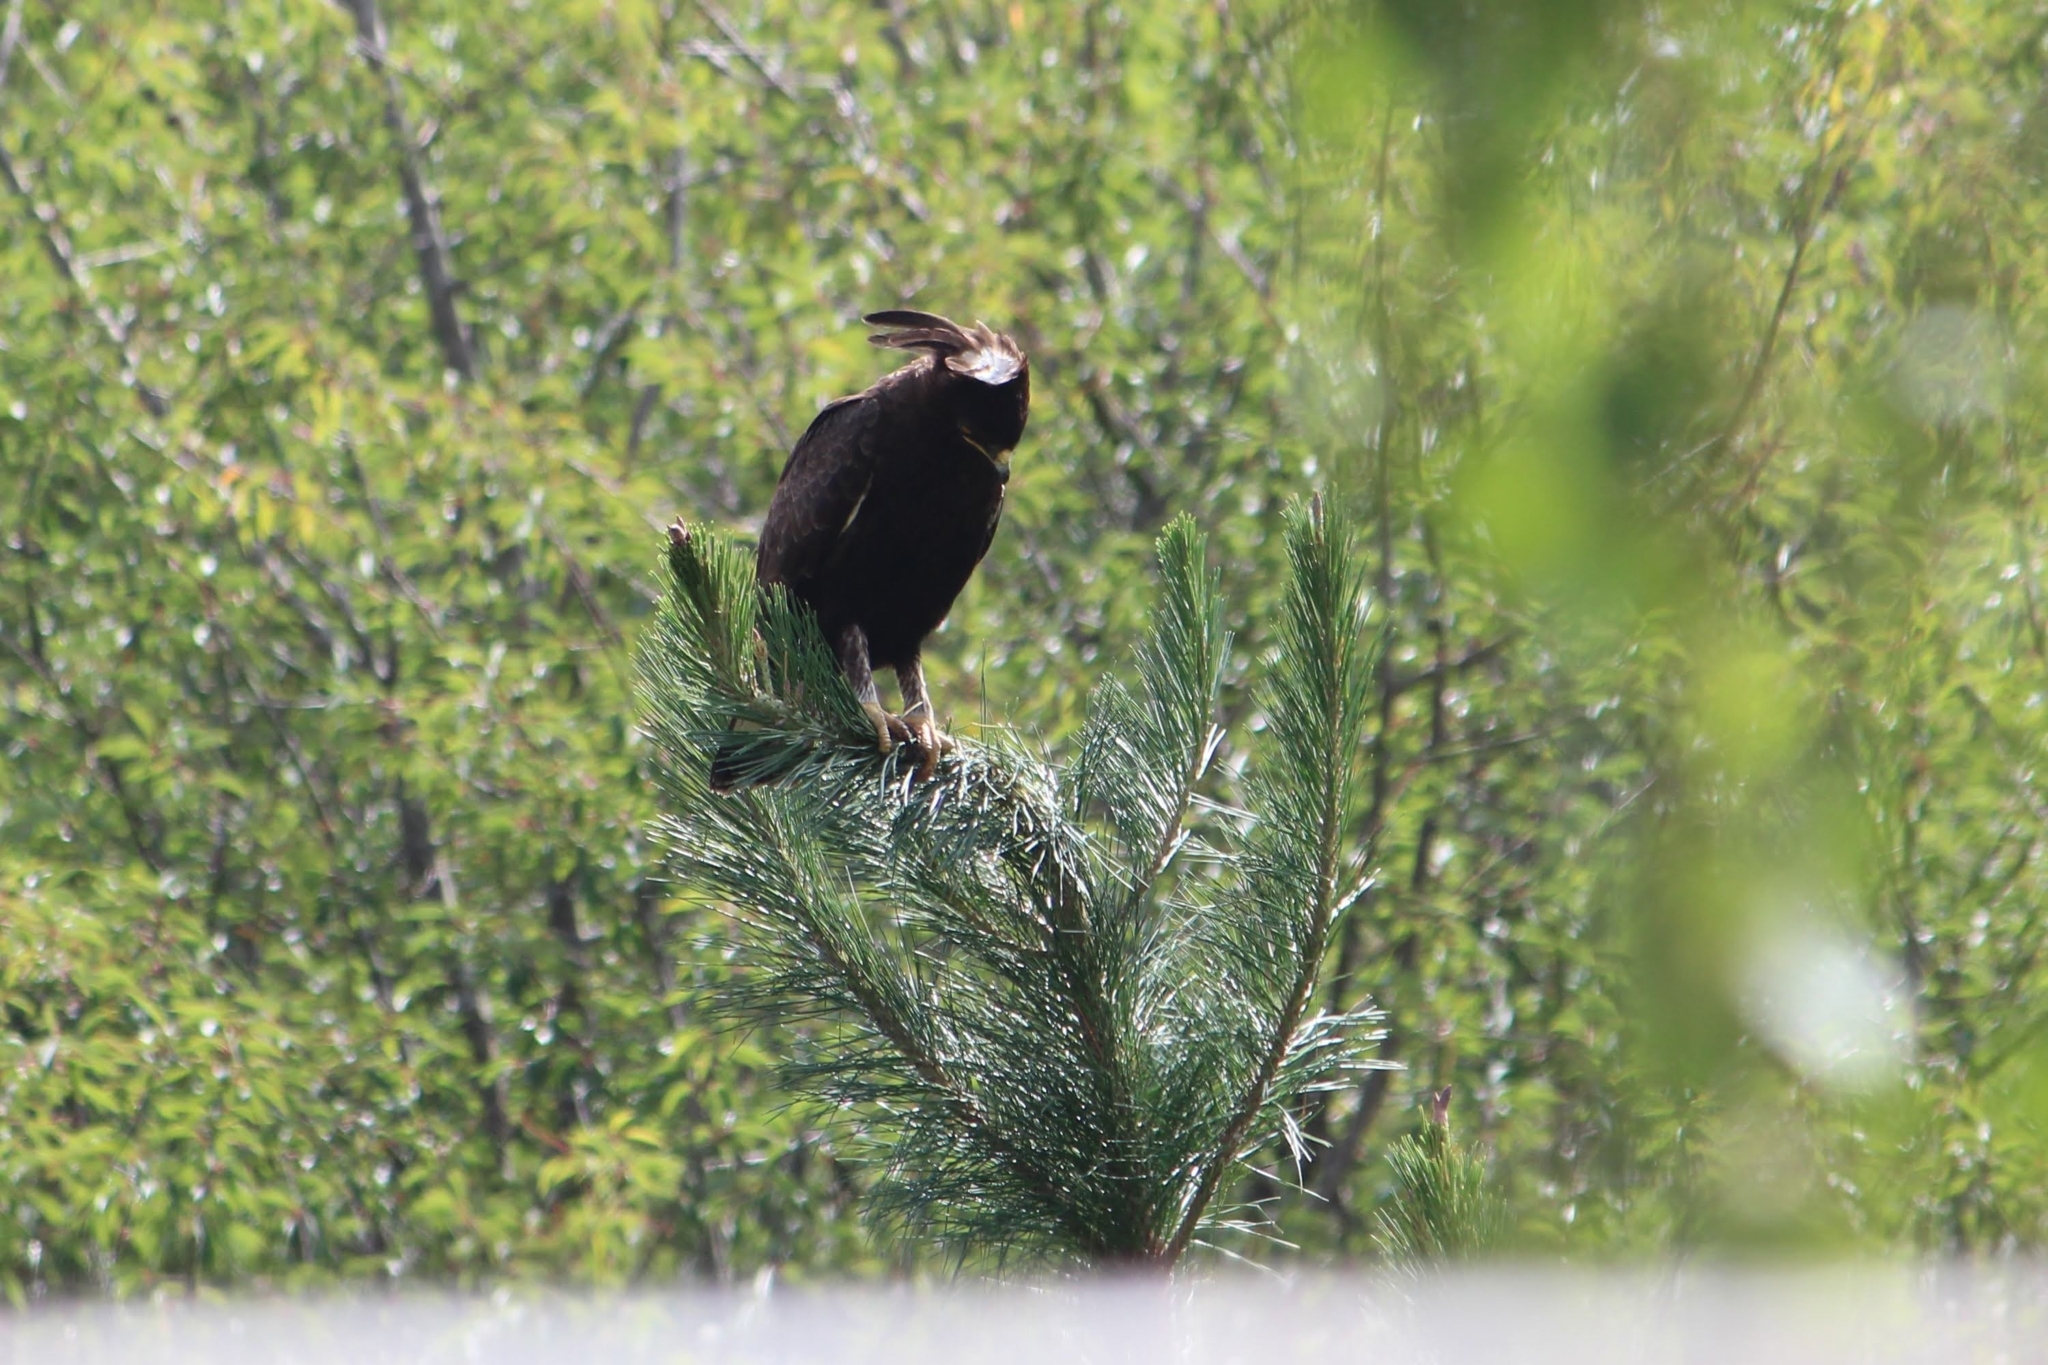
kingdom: Animalia
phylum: Chordata
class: Aves
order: Accipitriformes
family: Accipitridae
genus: Lophaetus
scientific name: Lophaetus occipitalis
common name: Long-crested eagle
